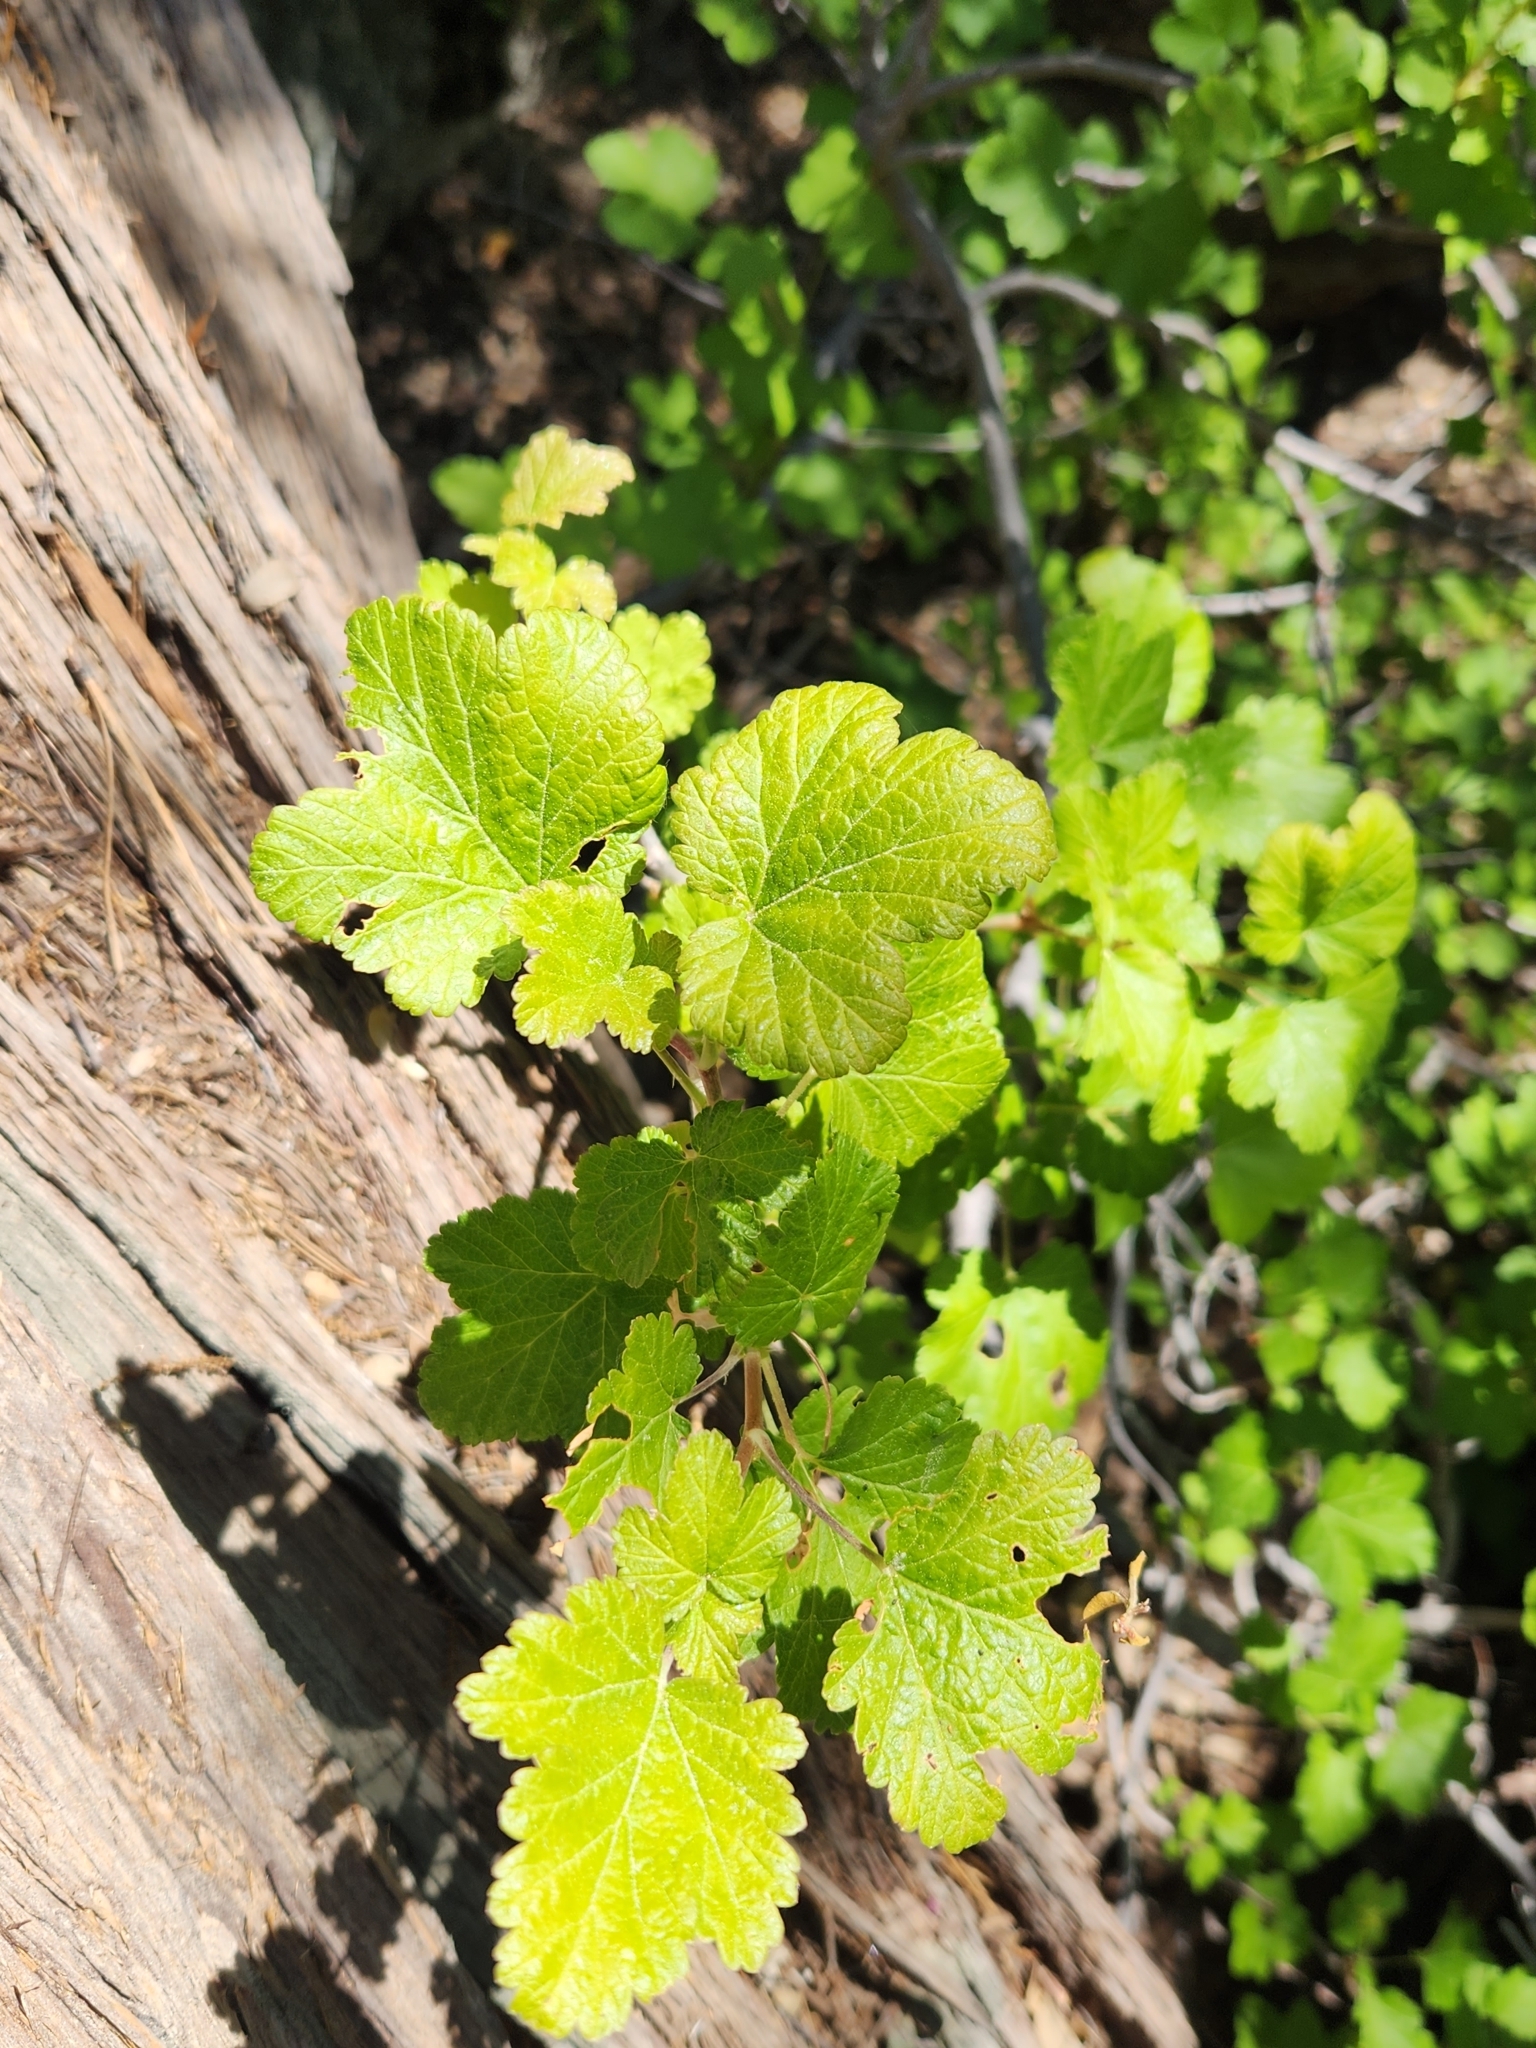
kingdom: Plantae
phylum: Tracheophyta
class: Magnoliopsida
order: Saxifragales
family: Grossulariaceae
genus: Ribes
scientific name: Ribes nevadense
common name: Mountain pink currant
